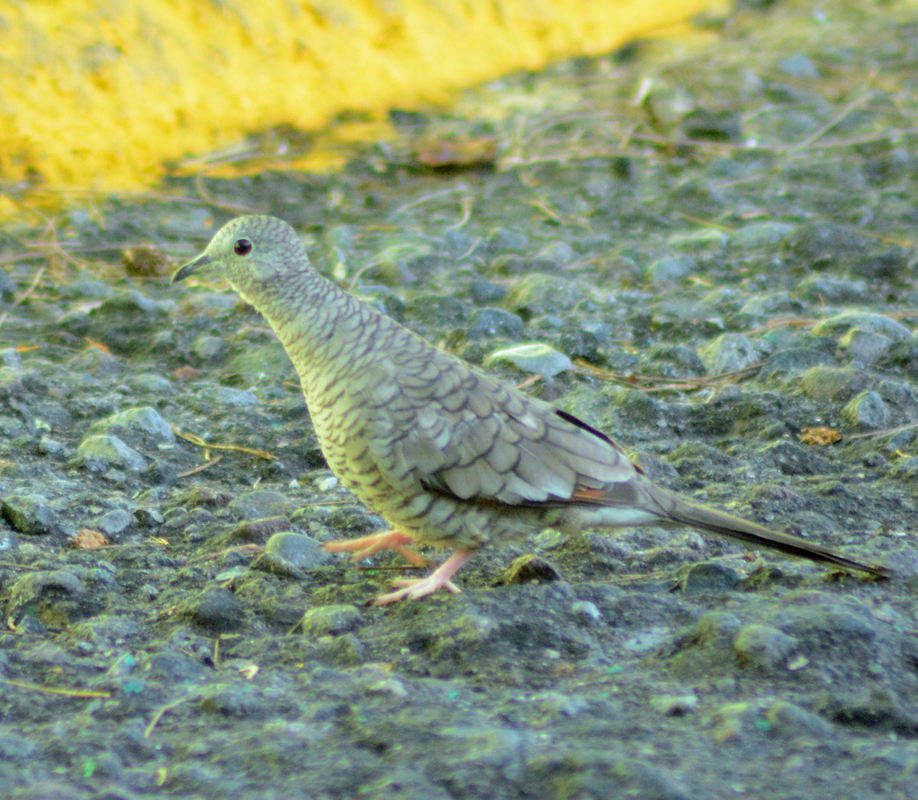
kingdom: Animalia
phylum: Chordata
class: Aves
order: Columbiformes
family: Columbidae
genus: Columbina
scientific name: Columbina inca
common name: Inca dove
